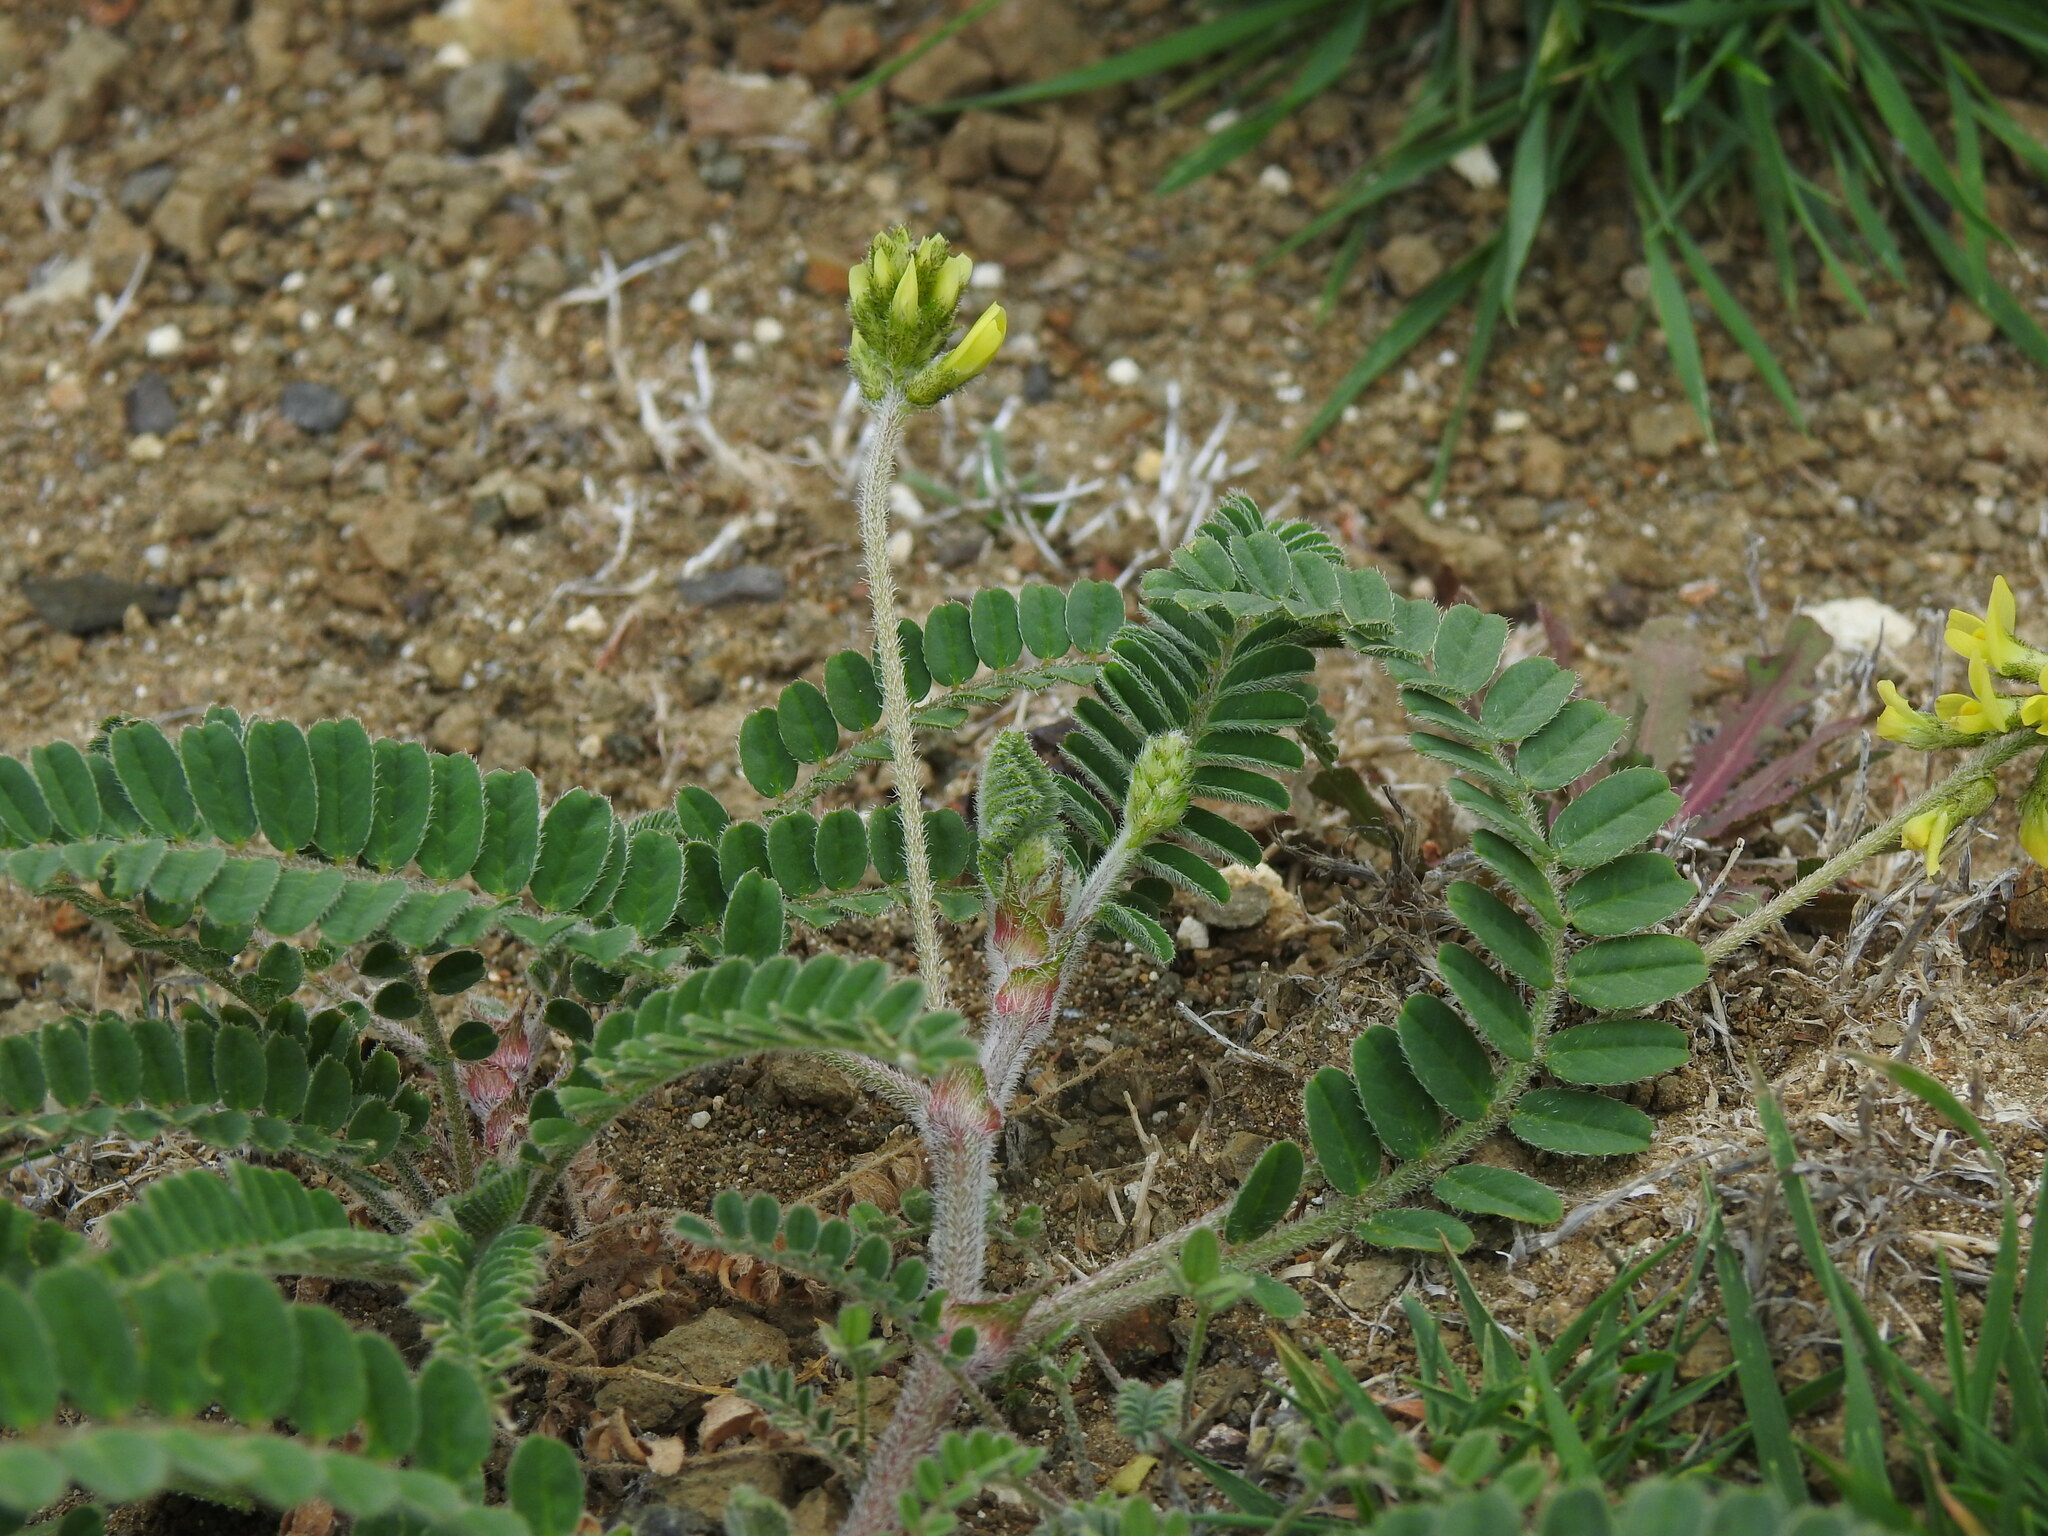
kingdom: Plantae
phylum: Tracheophyta
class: Magnoliopsida
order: Fabales
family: Fabaceae
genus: Astragalus
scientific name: Astragalus solandri
